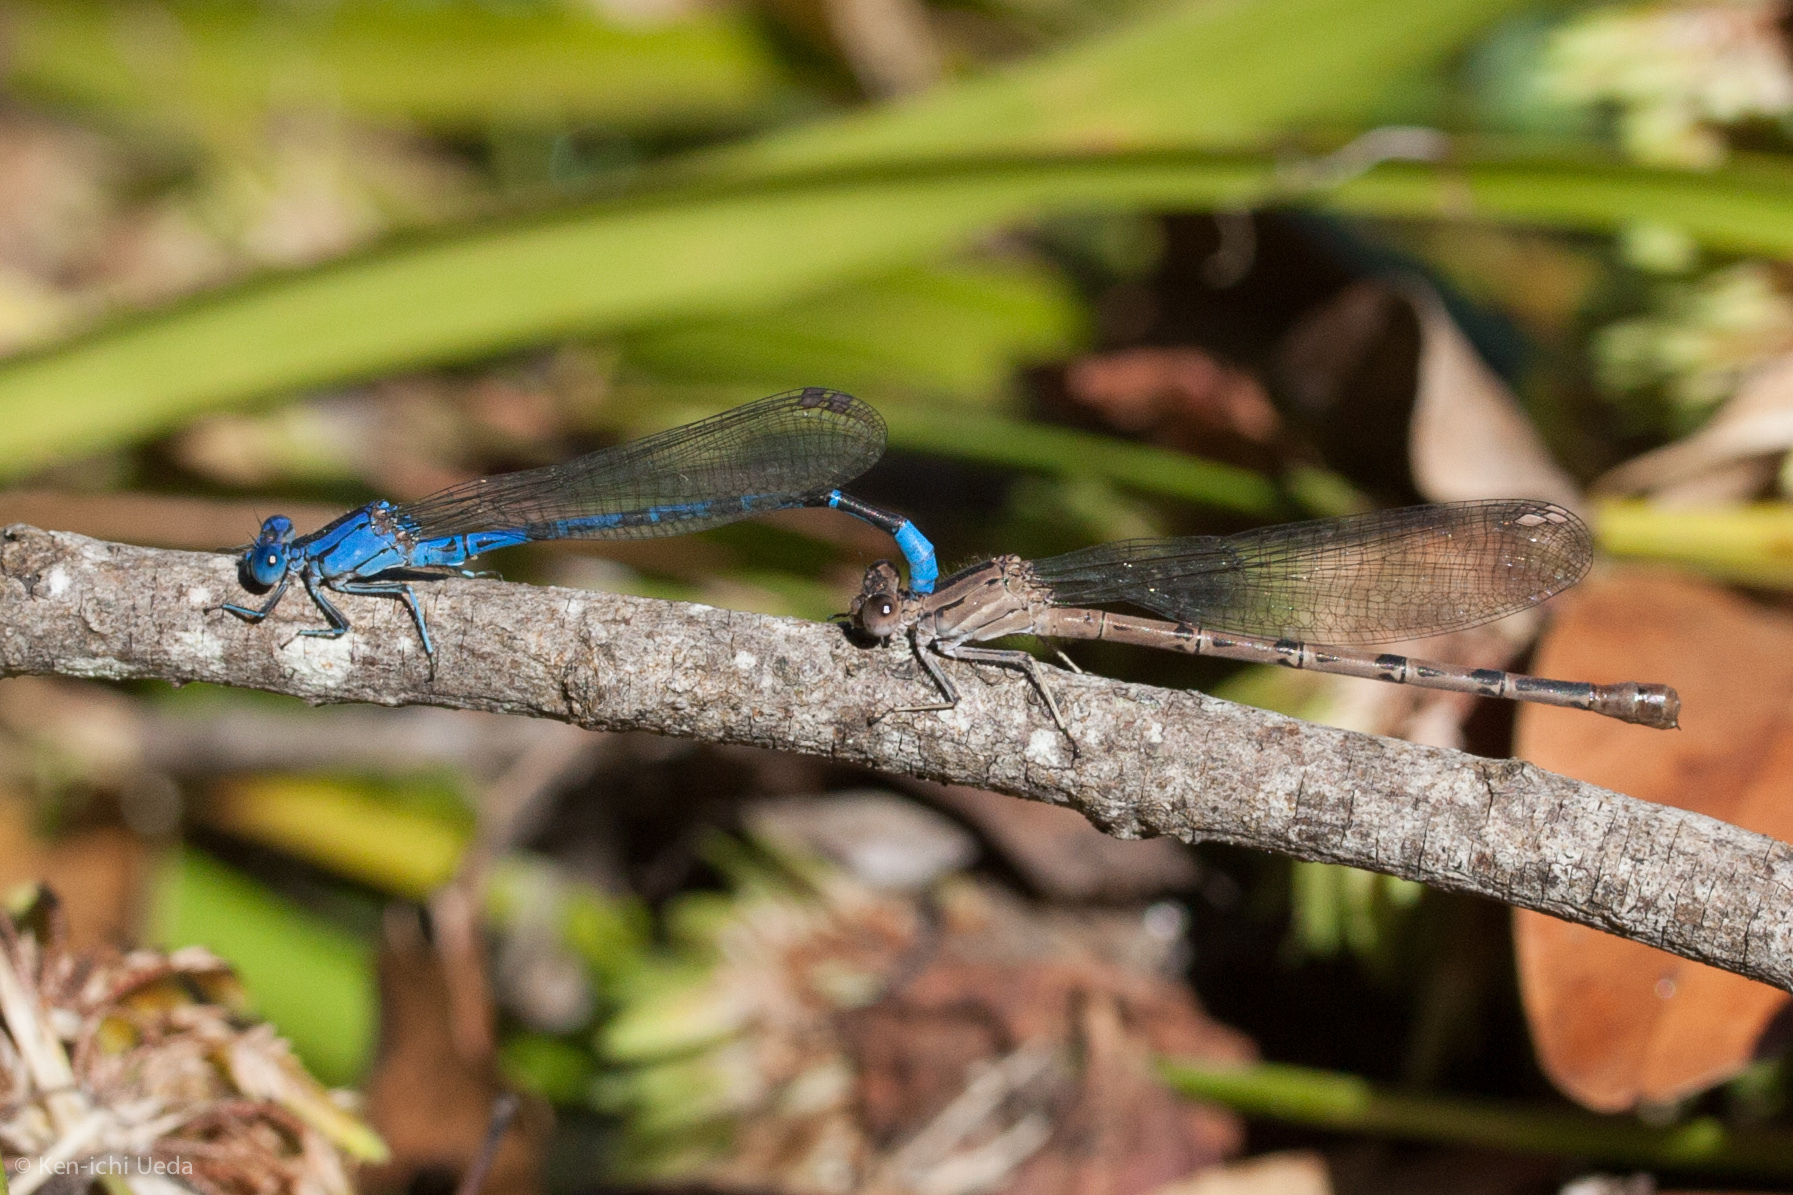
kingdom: Animalia
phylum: Arthropoda
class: Insecta
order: Odonata
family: Coenagrionidae
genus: Argia
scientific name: Argia vivida
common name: Vivid dancer
